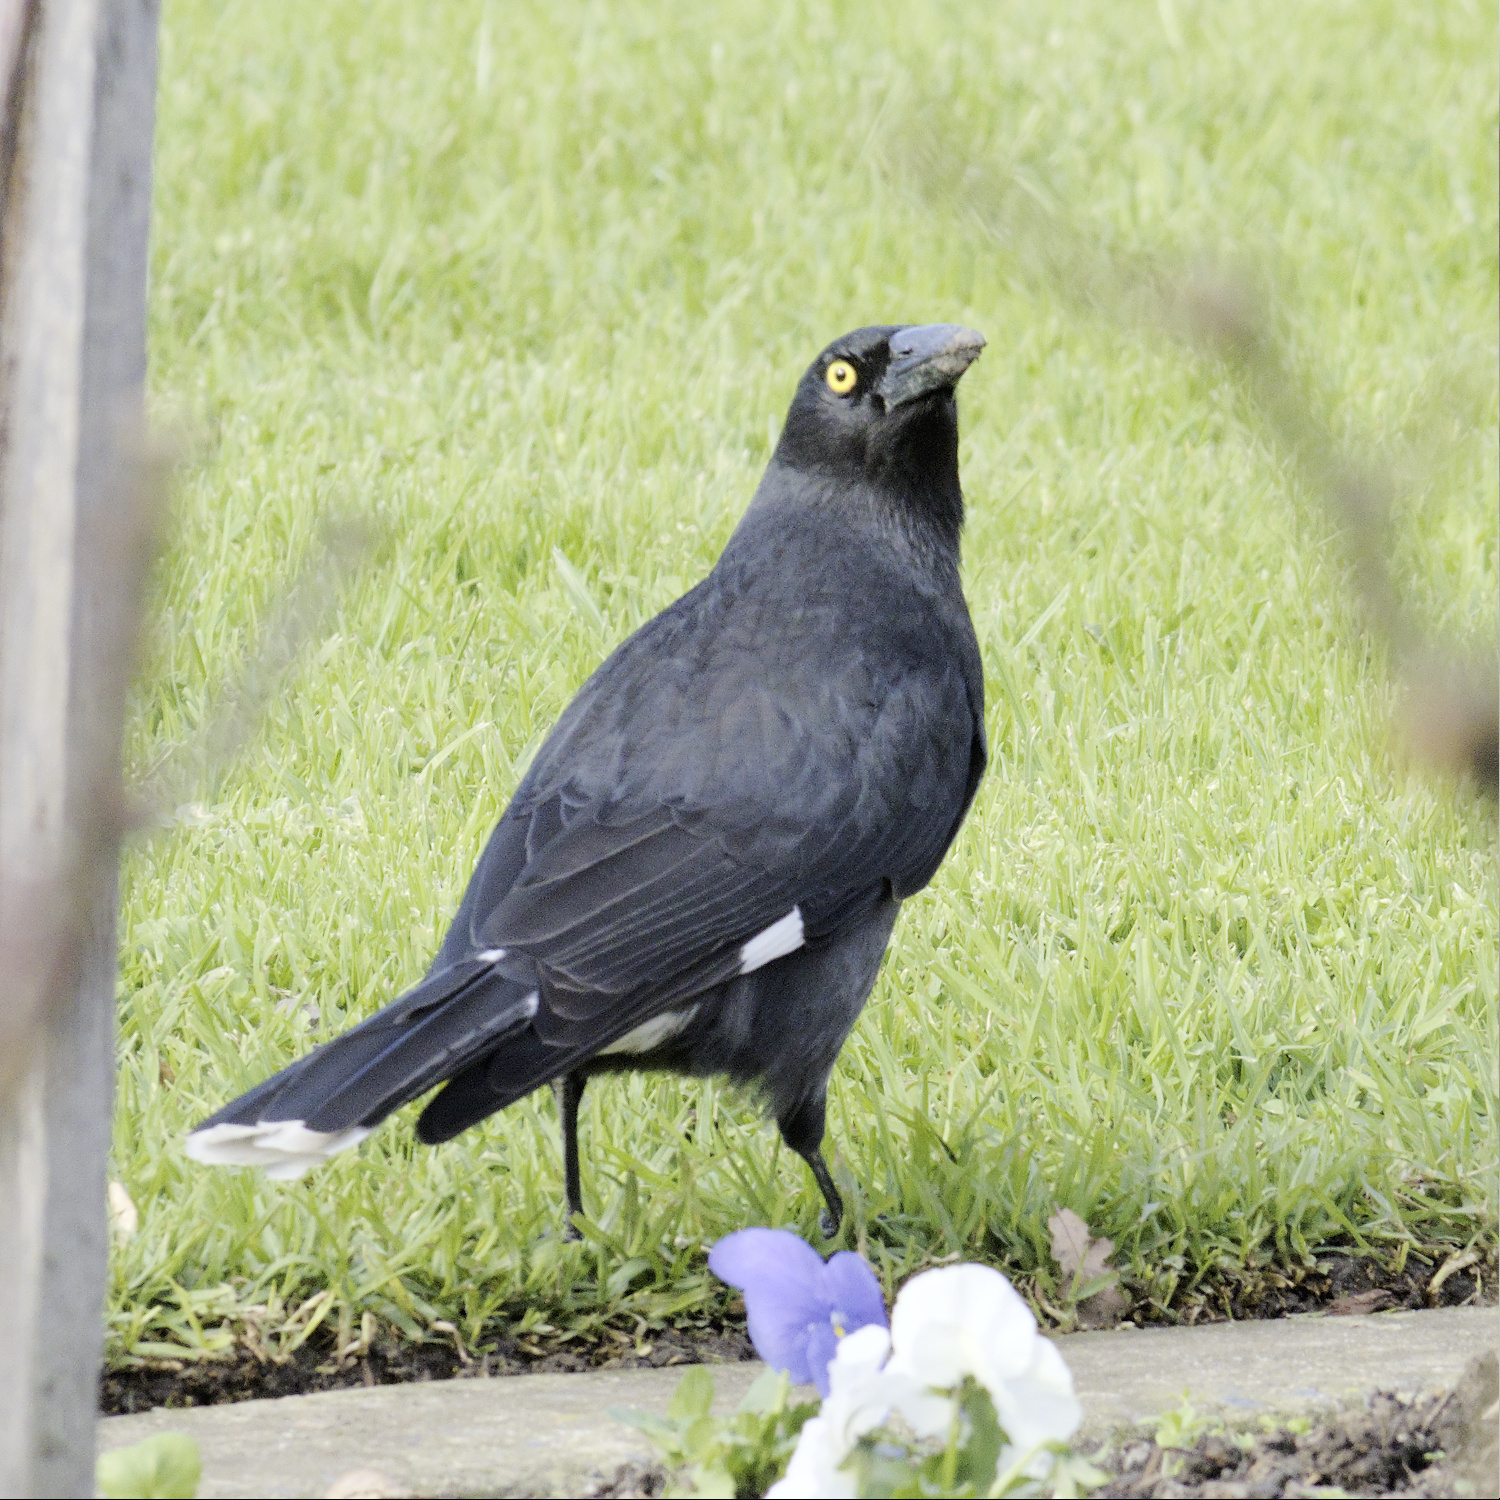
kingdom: Animalia
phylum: Chordata
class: Aves
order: Passeriformes
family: Cracticidae
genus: Strepera
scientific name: Strepera graculina
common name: Pied currawong
